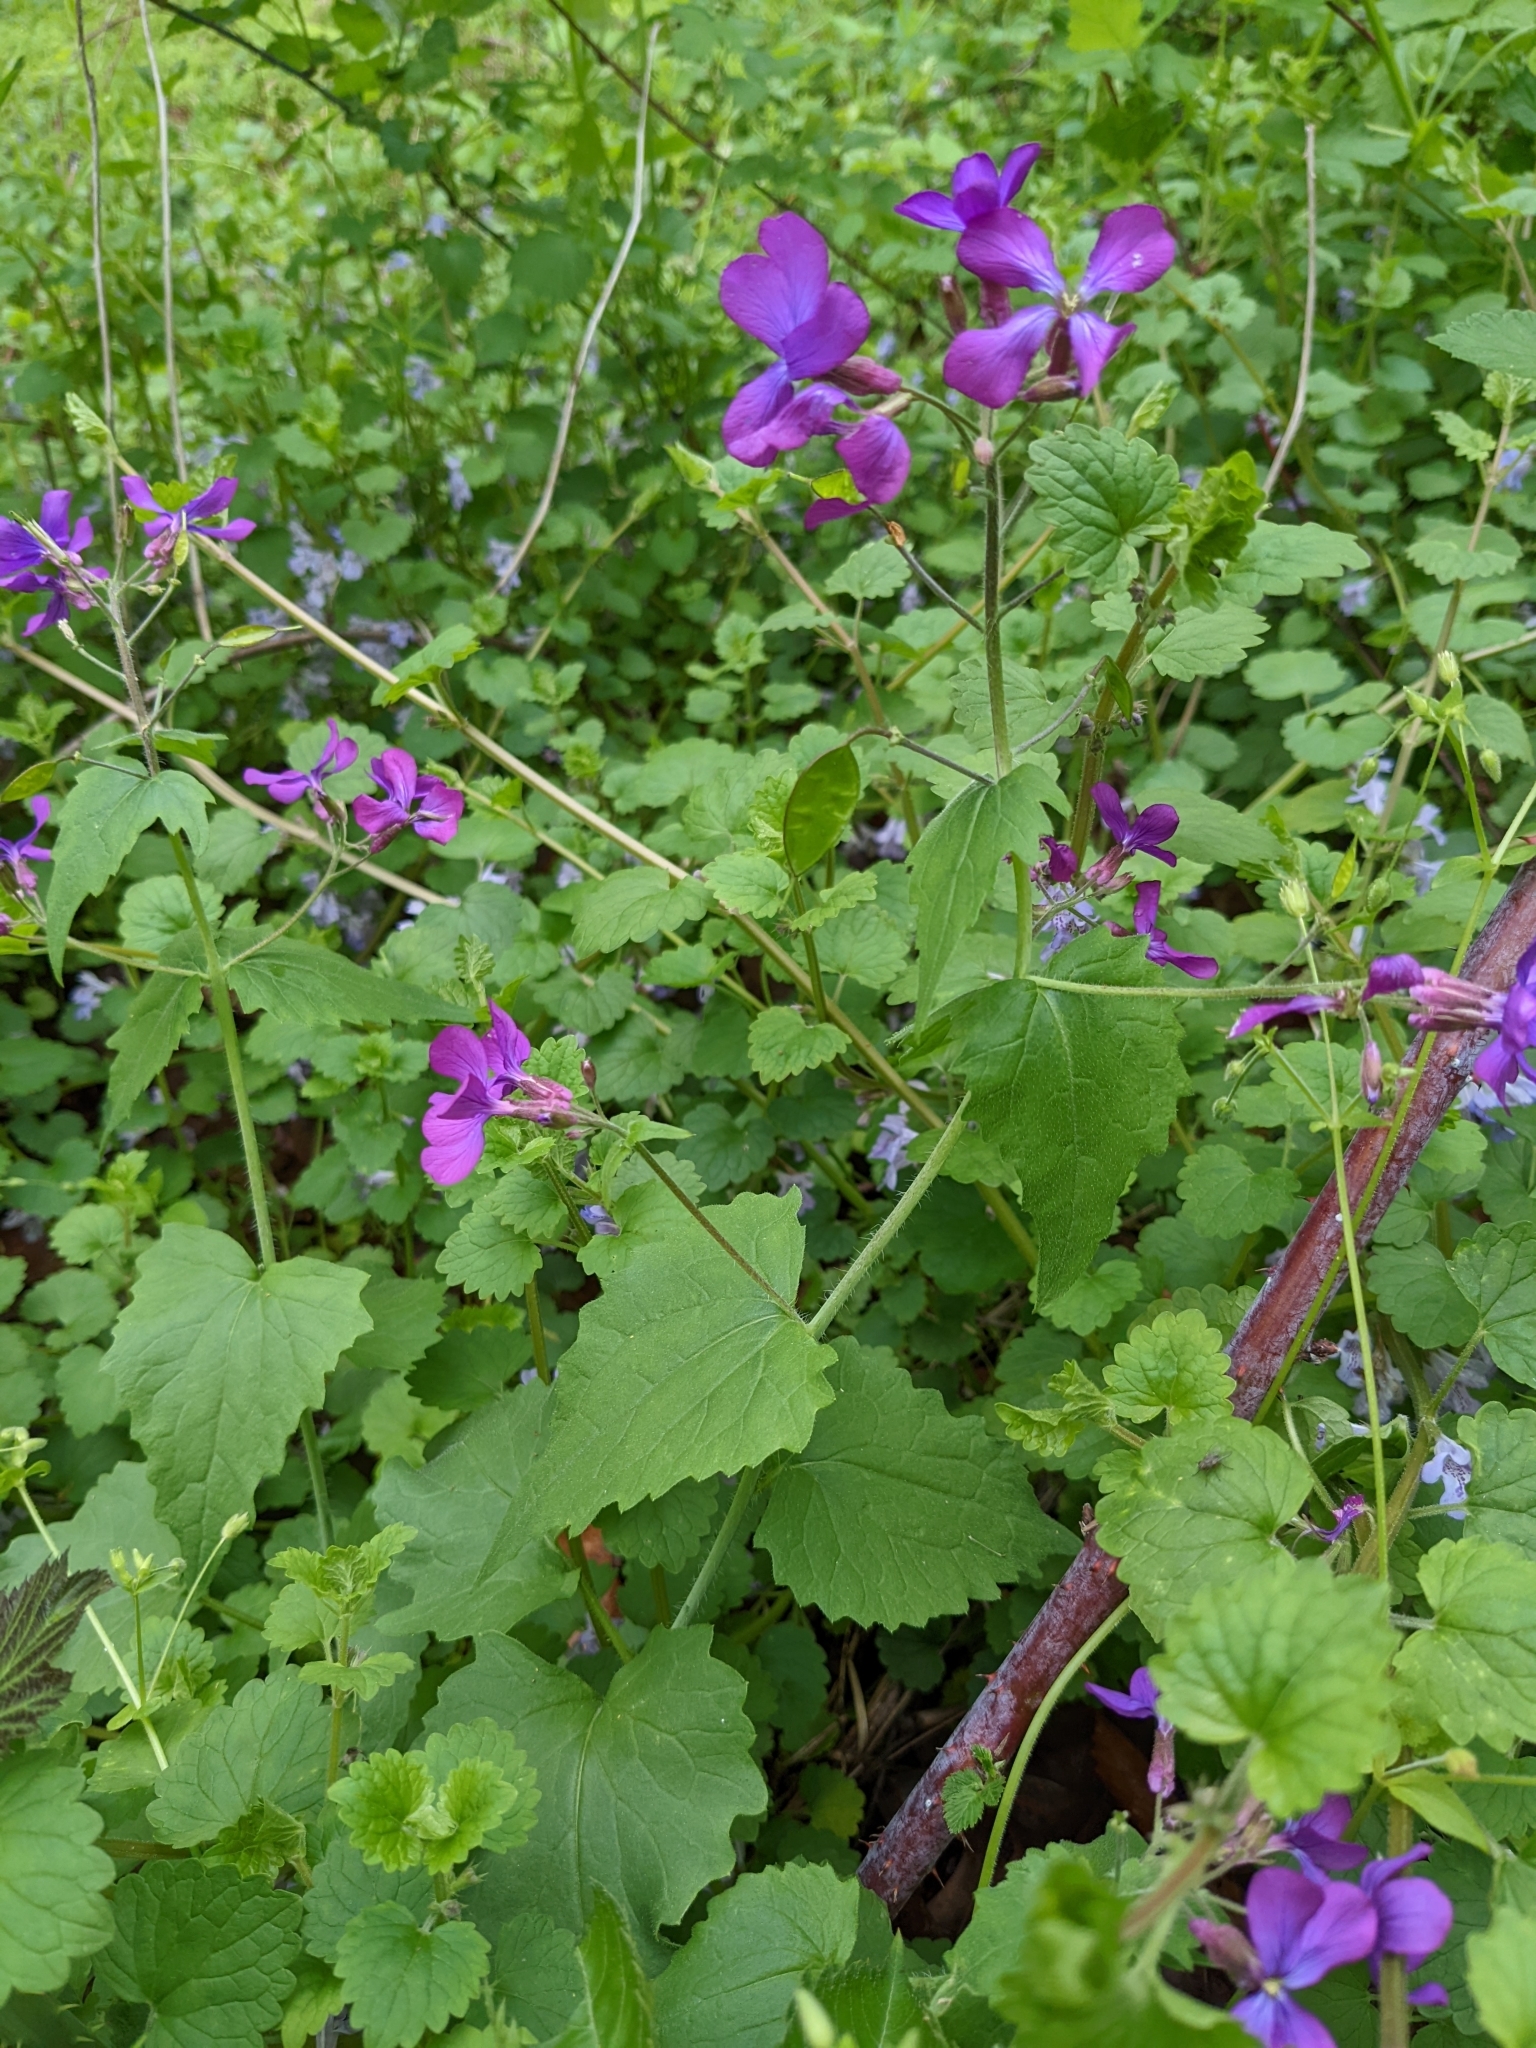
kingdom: Plantae
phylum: Tracheophyta
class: Magnoliopsida
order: Brassicales
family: Brassicaceae
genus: Lunaria
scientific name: Lunaria annua
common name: Honesty
